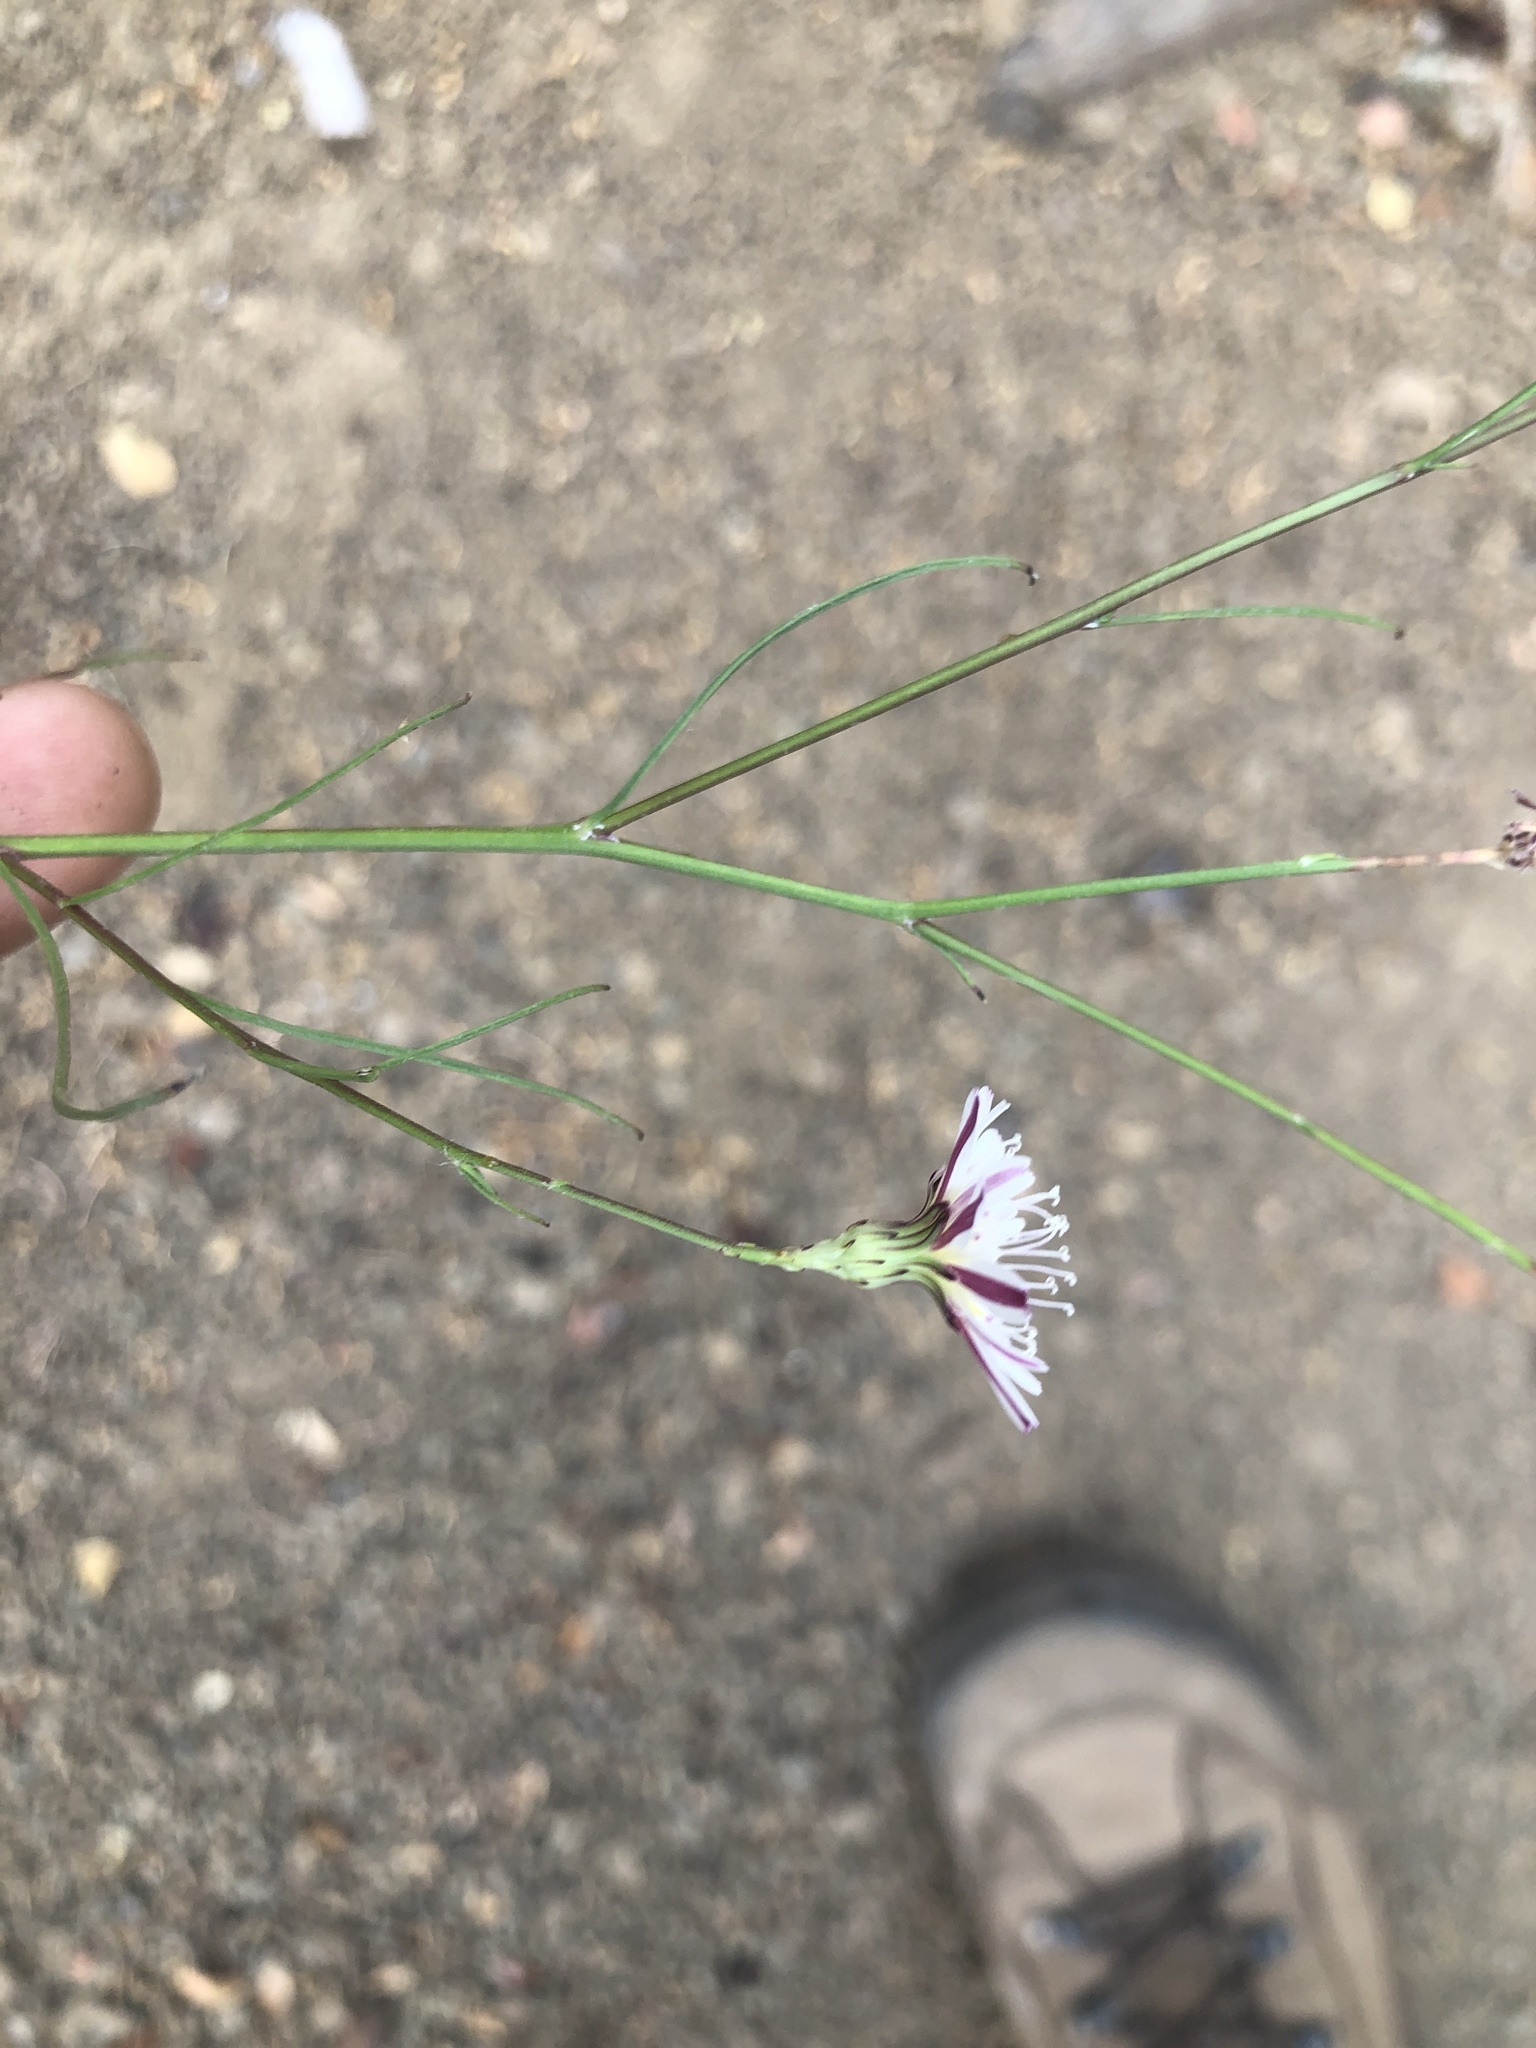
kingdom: Plantae
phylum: Tracheophyta
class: Magnoliopsida
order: Asterales
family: Asteraceae
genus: Malacothrix
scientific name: Malacothrix saxatilis
